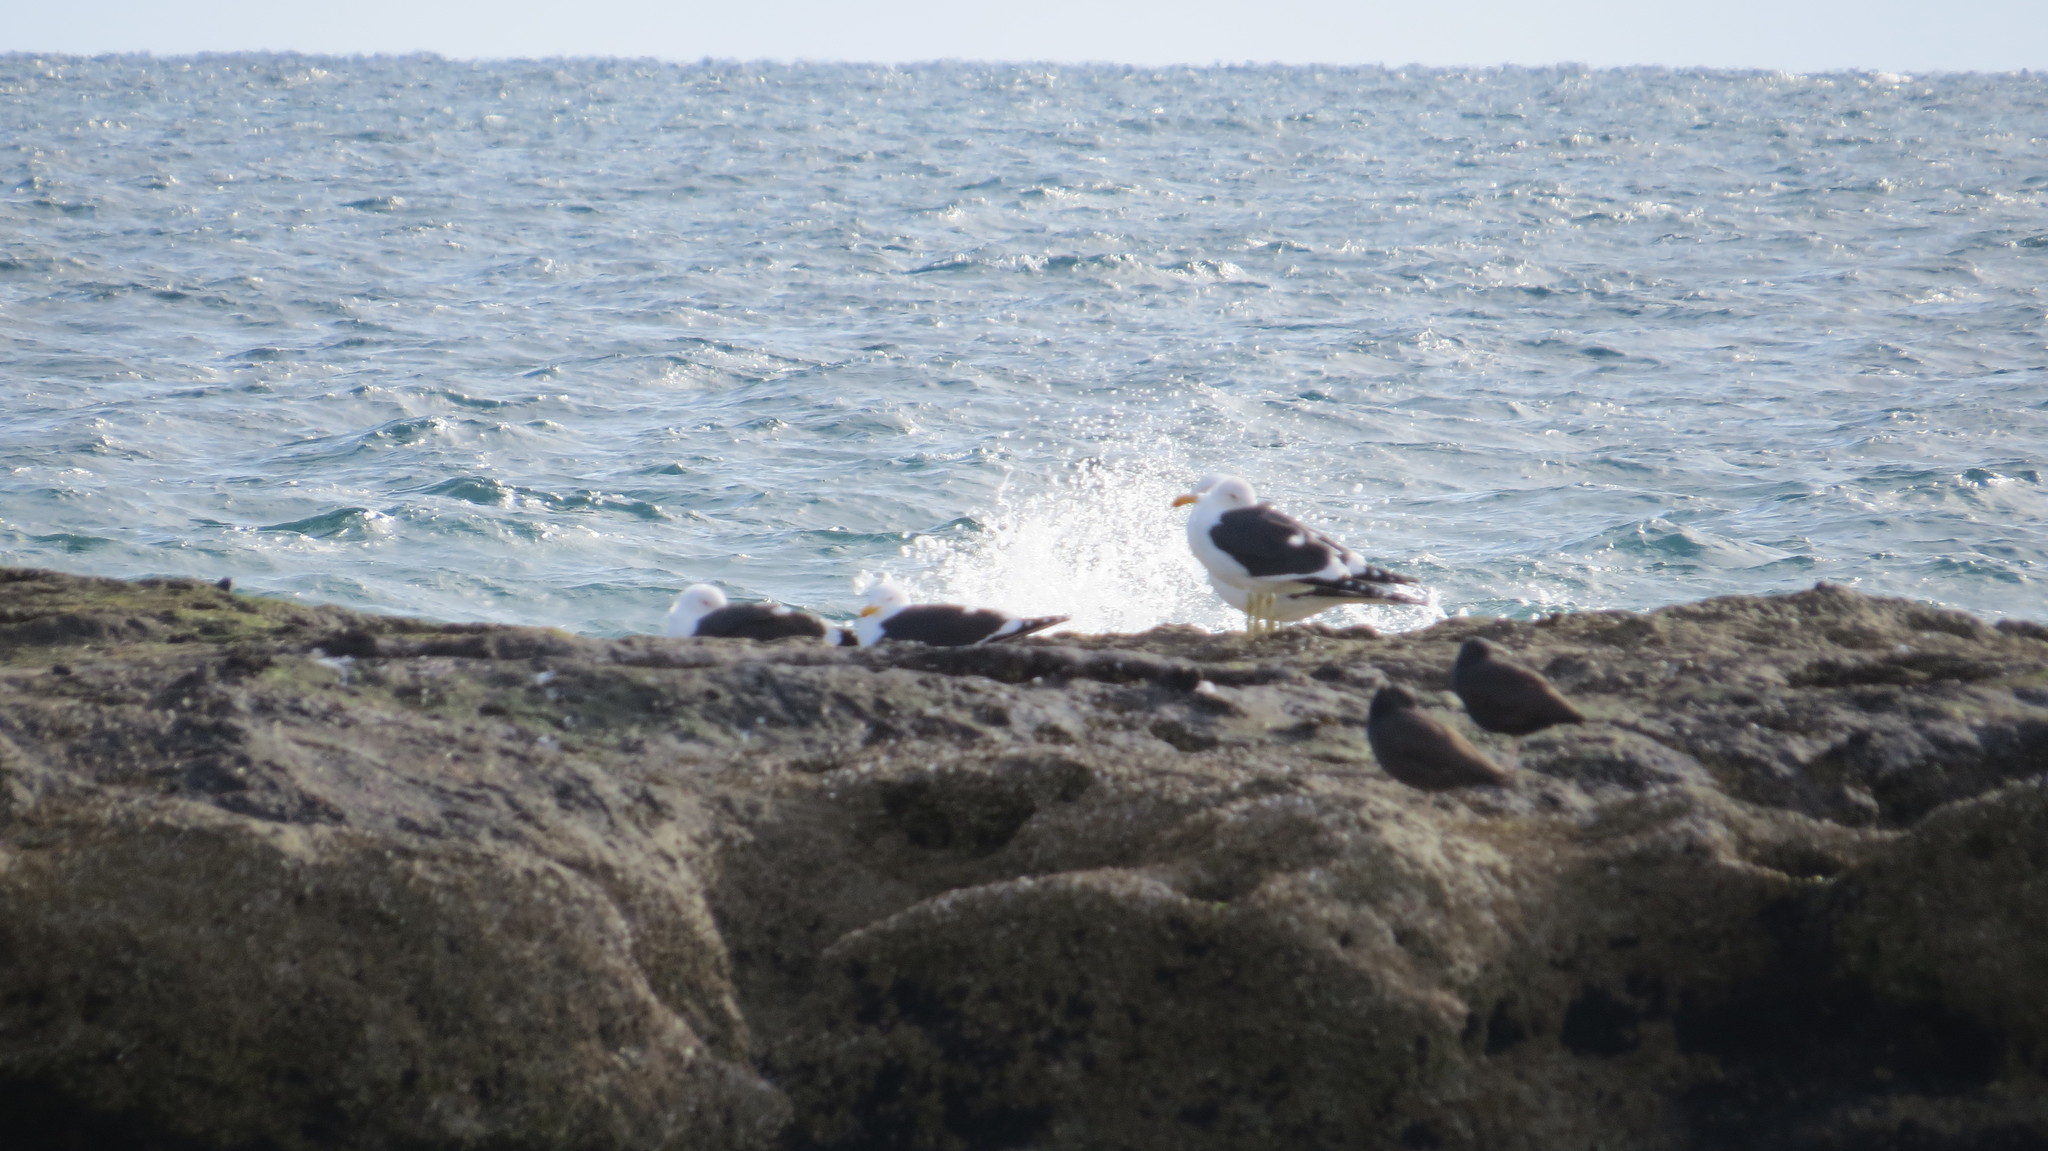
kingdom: Animalia
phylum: Chordata
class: Aves
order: Charadriiformes
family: Laridae
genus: Larus
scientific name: Larus dominicanus
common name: Kelp gull
